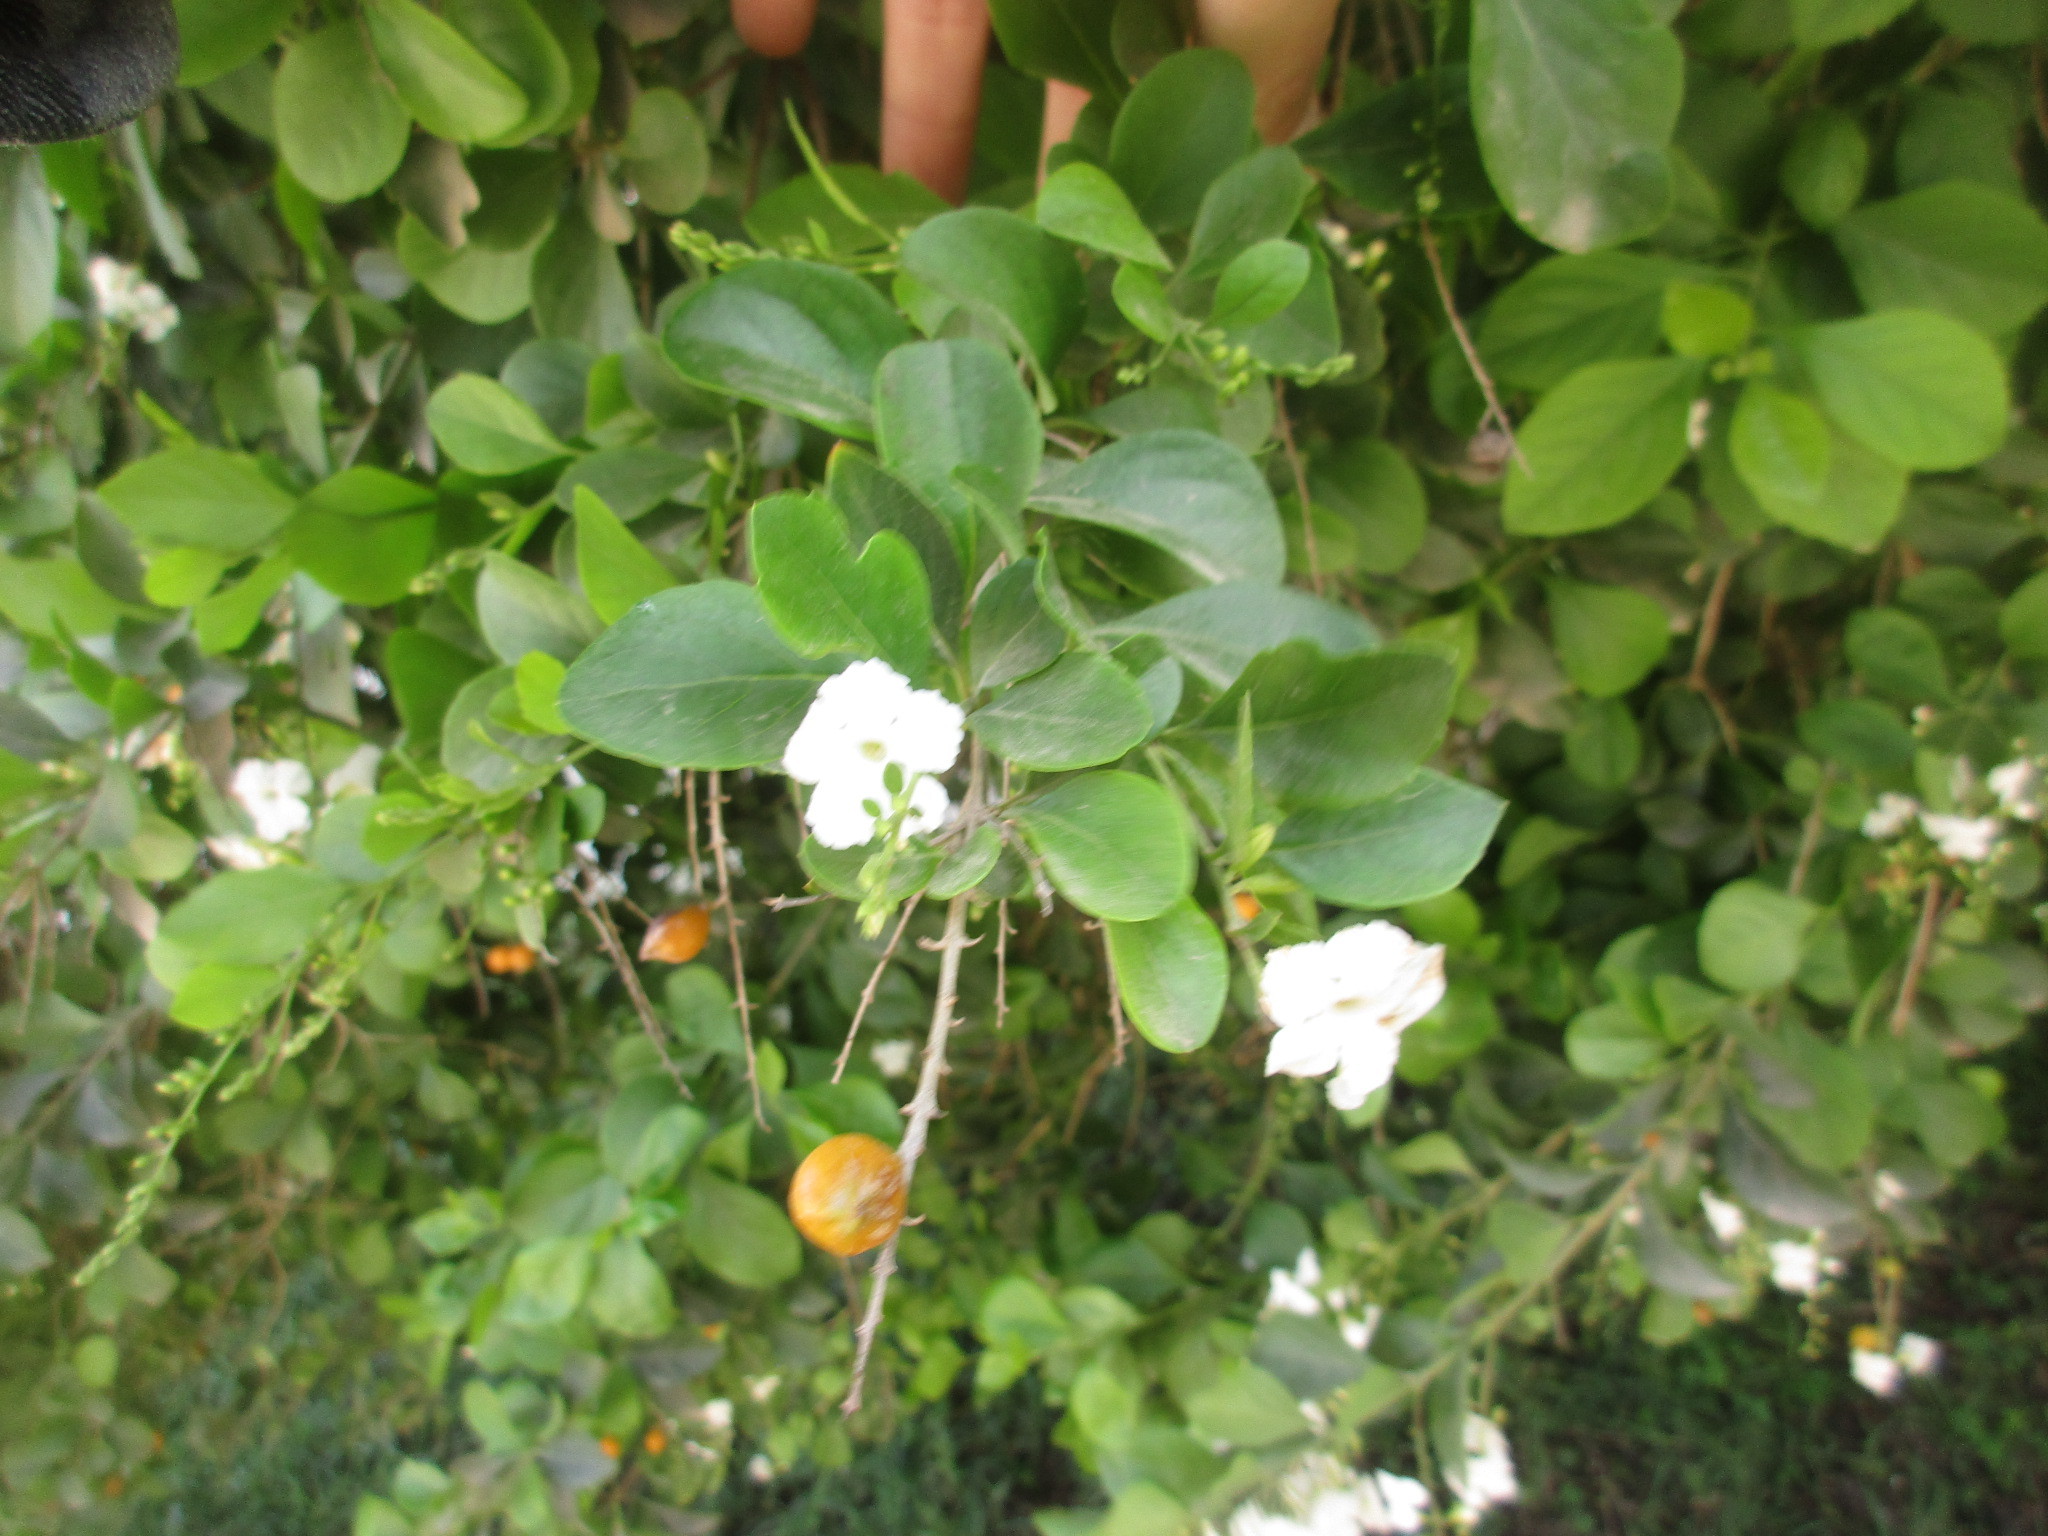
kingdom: Plantae
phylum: Tracheophyta
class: Magnoliopsida
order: Lamiales
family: Verbenaceae
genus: Duranta
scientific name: Duranta erecta
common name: Golden dewdrops
